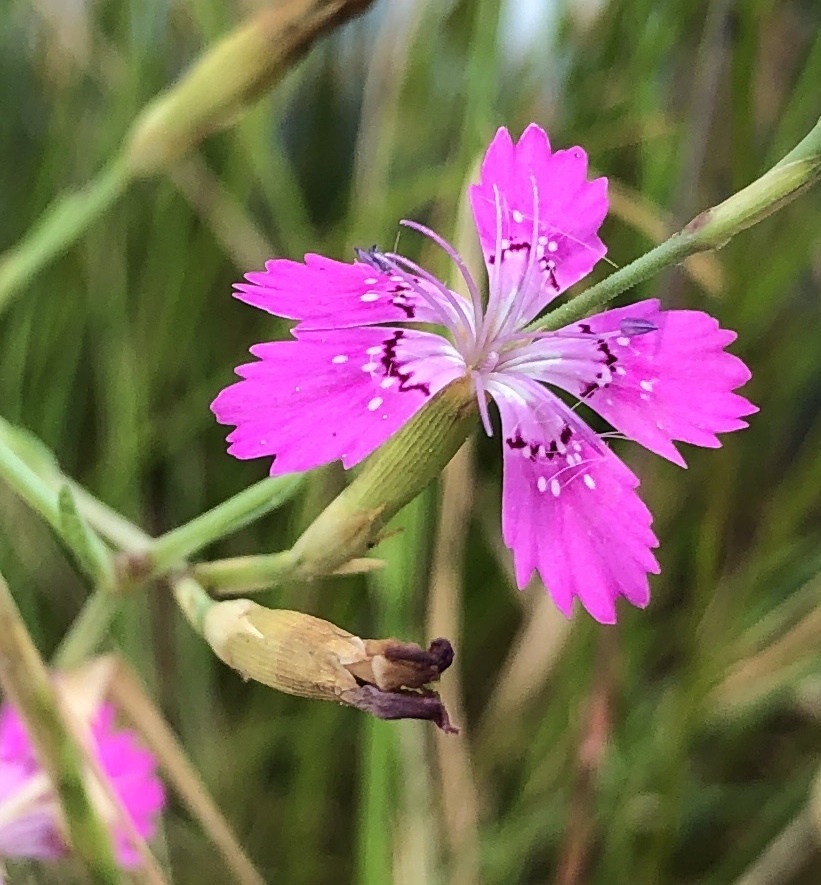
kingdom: Plantae
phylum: Tracheophyta
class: Magnoliopsida
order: Caryophyllales
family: Caryophyllaceae
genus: Dianthus
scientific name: Dianthus deltoides
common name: Maiden pink
